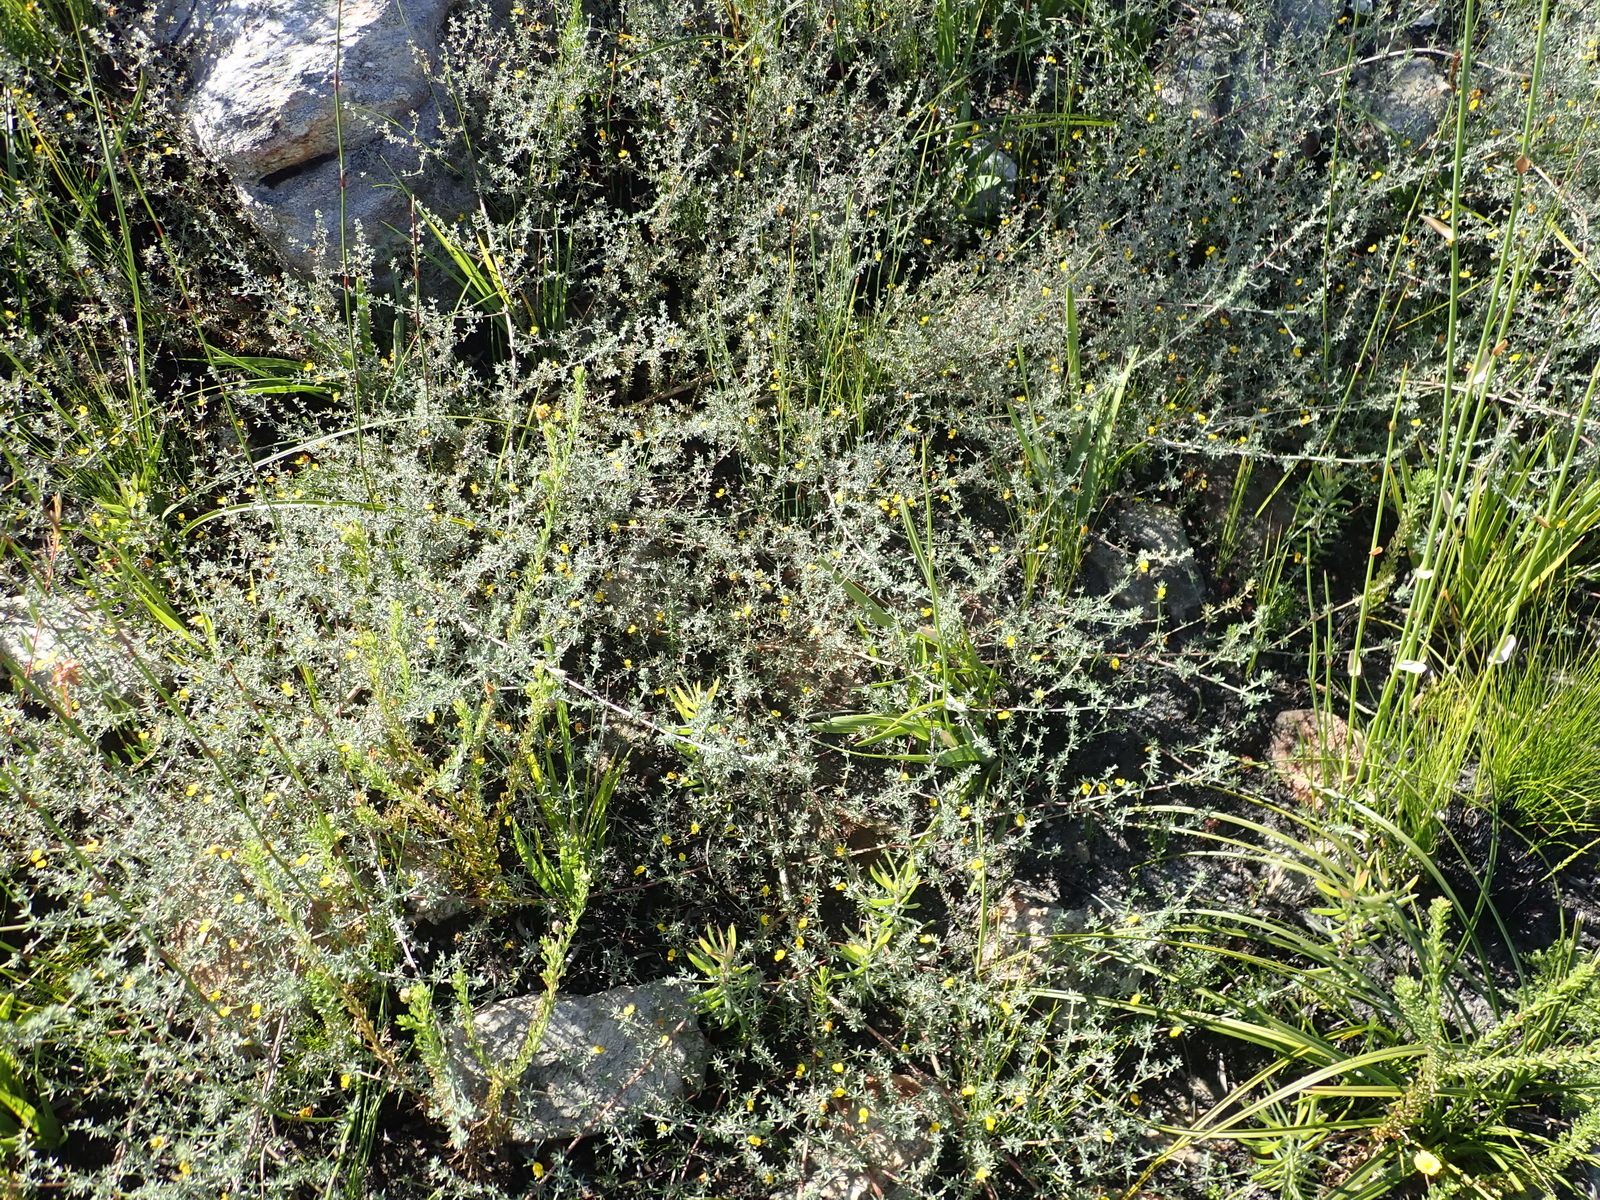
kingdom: Plantae
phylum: Tracheophyta
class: Magnoliopsida
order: Fabales
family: Fabaceae
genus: Aspalathus
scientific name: Aspalathus digitifolia
